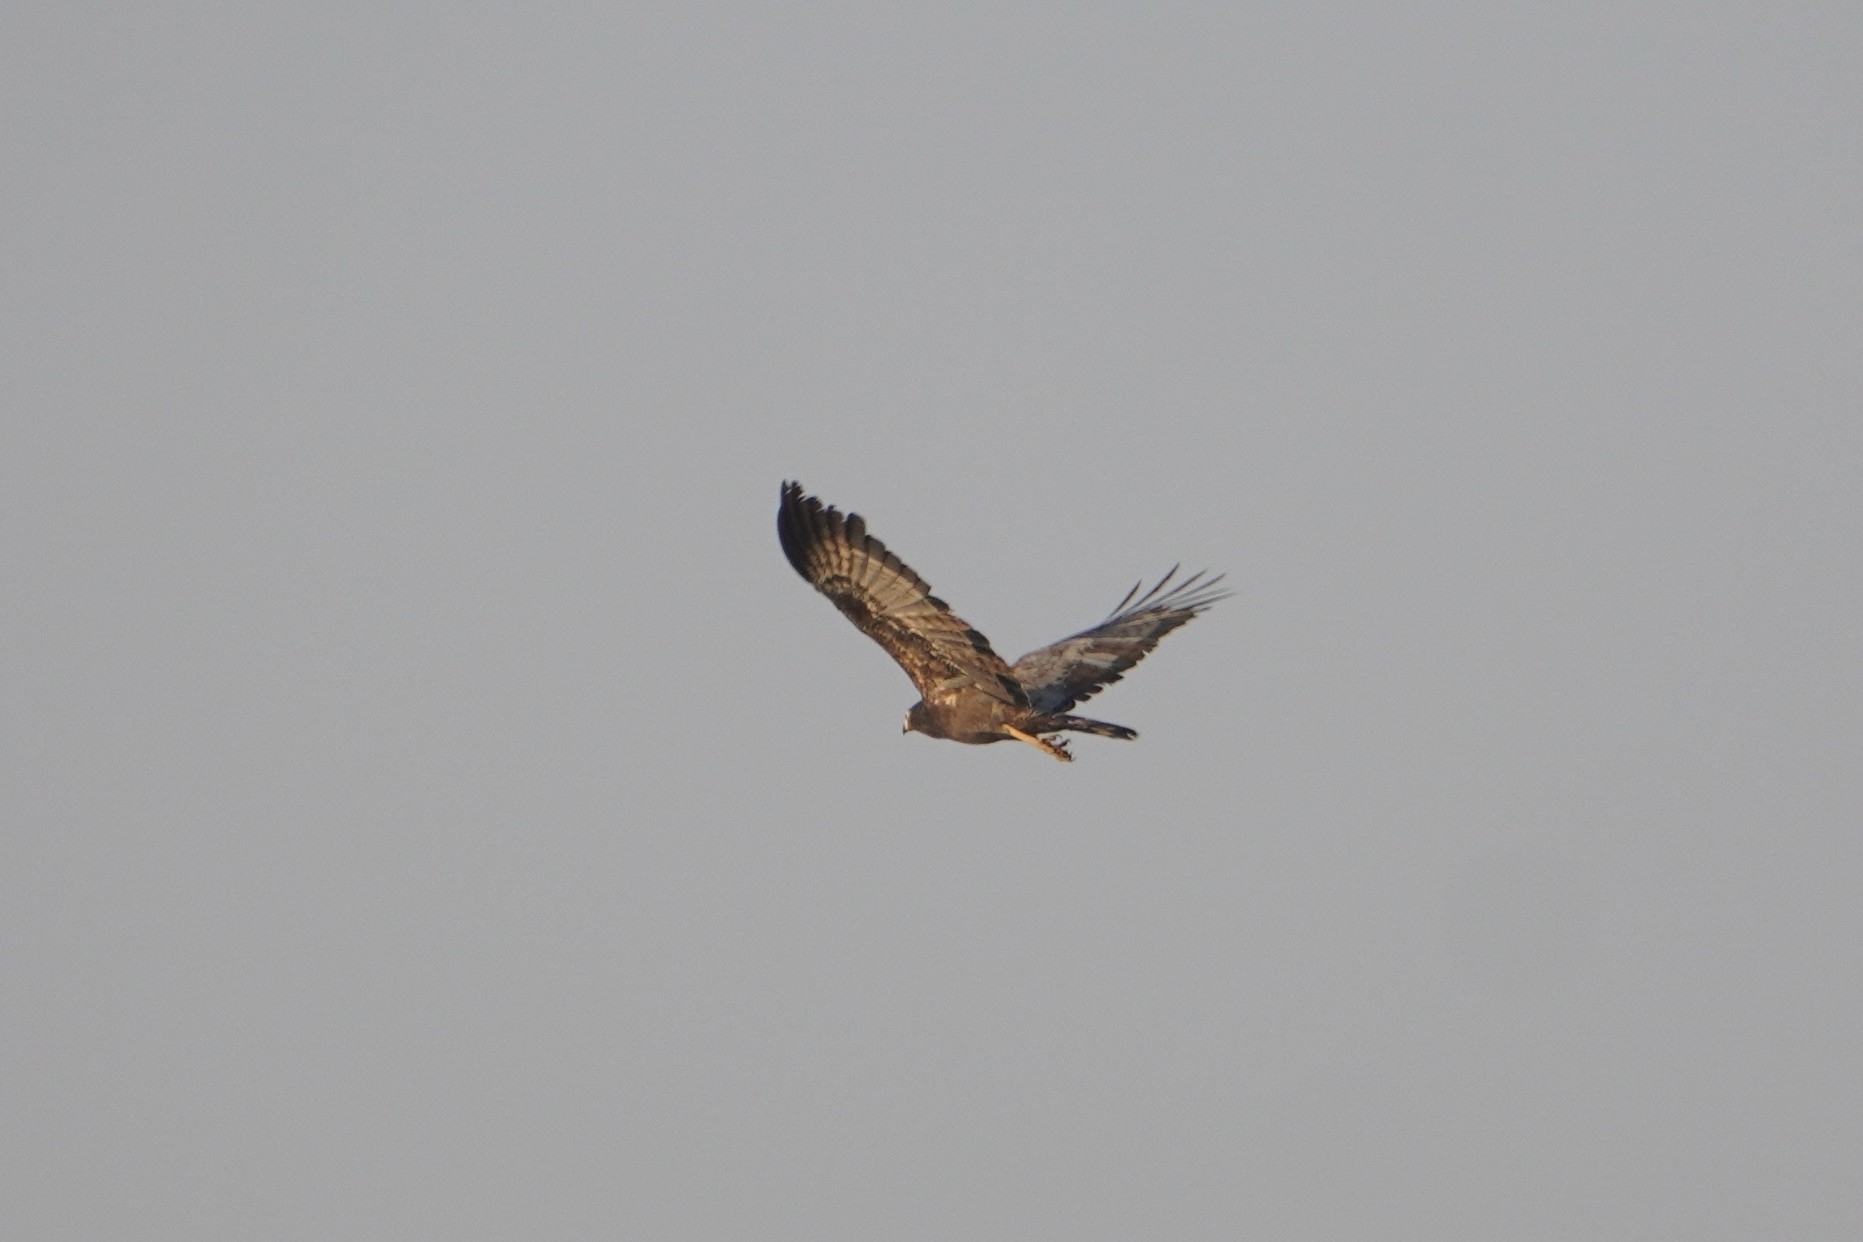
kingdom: Animalia
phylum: Chordata
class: Aves
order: Accipitriformes
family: Accipitridae
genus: Polyboroides
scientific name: Polyboroides typus
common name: African harrier-hawk
